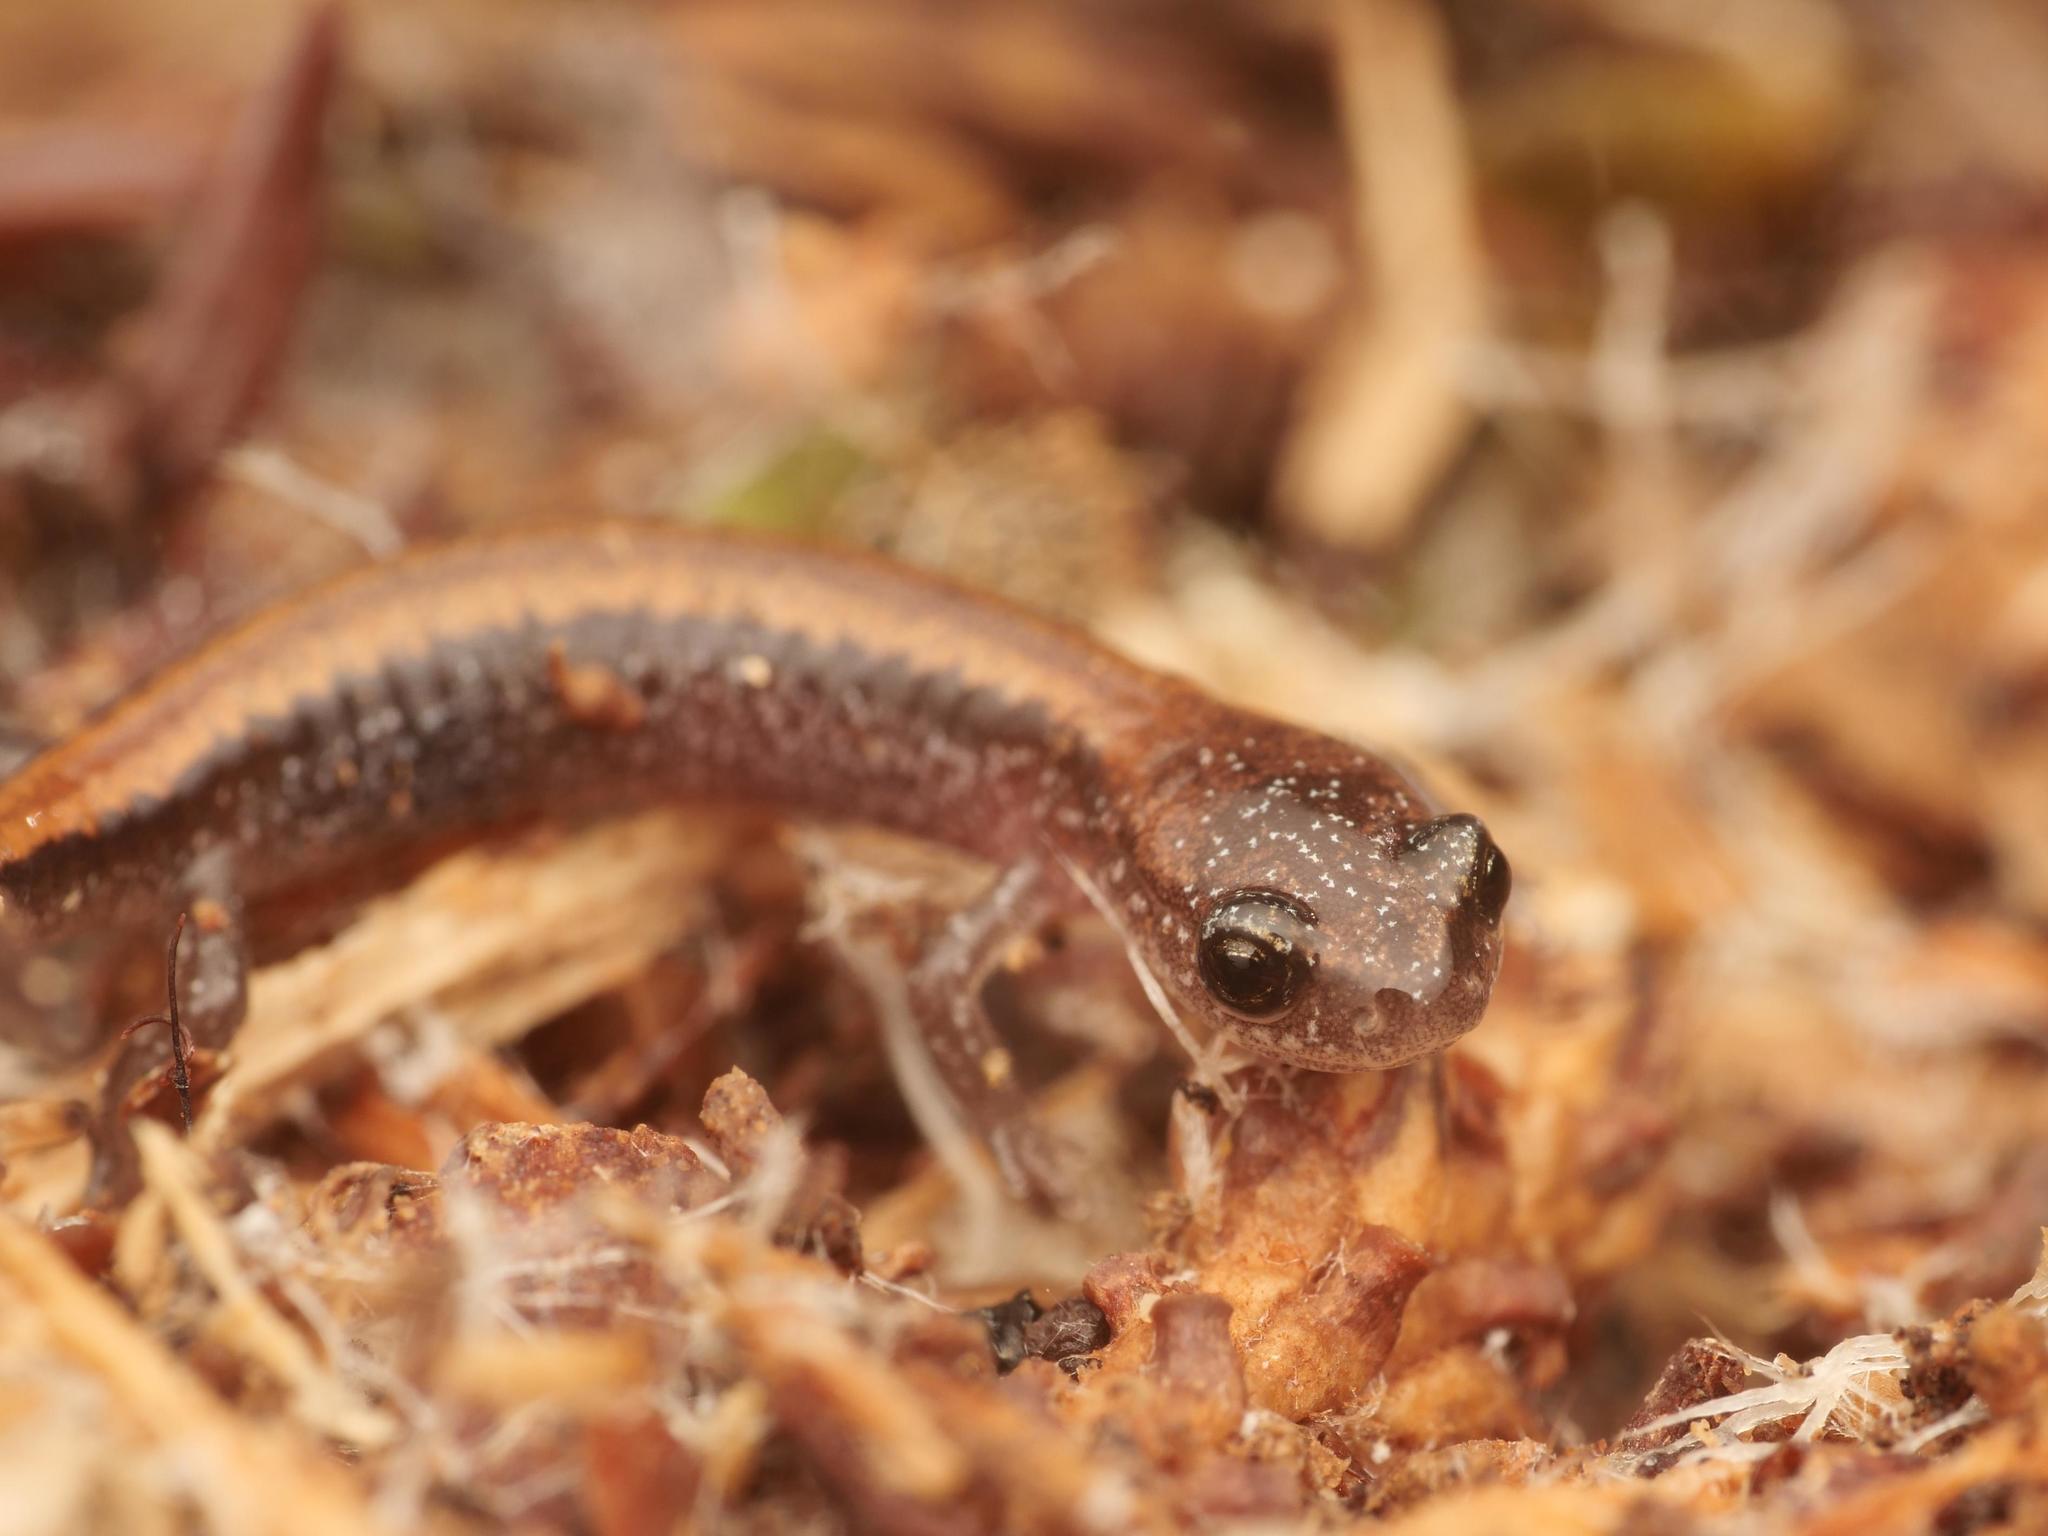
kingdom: Animalia
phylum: Chordata
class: Amphibia
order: Caudata
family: Plethodontidae
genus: Plethodon
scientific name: Plethodon cinereus
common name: Redback salamander
